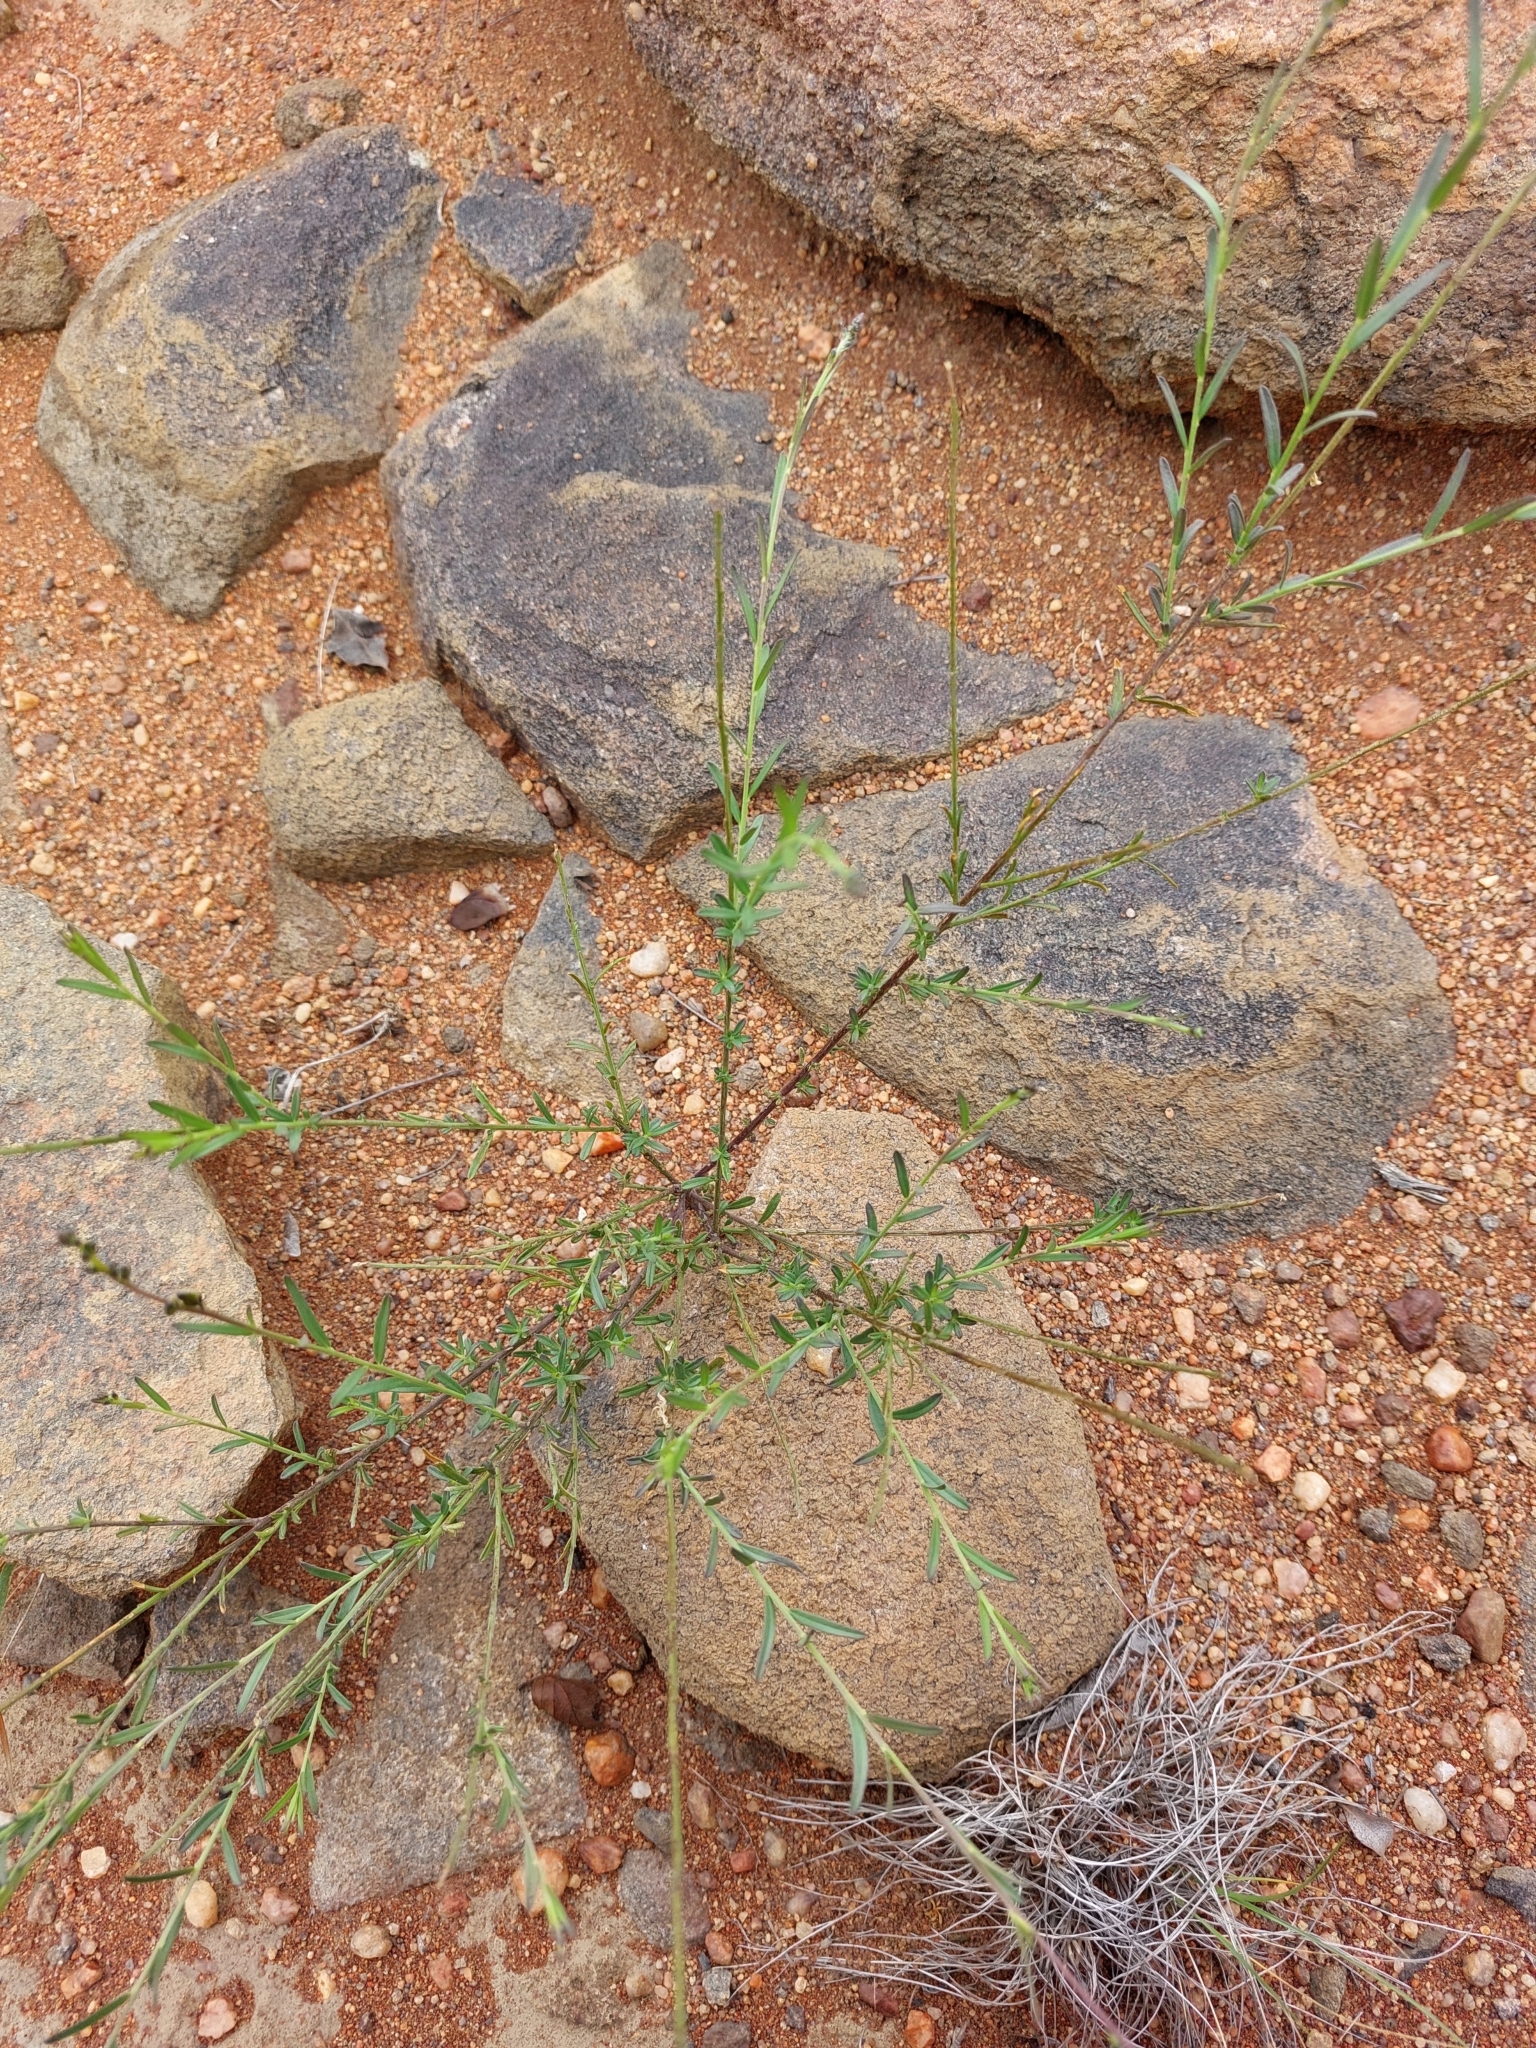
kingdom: Plantae
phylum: Tracheophyta
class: Magnoliopsida
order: Fabales
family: Polygalaceae
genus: Polygala
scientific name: Polygala uncinata
